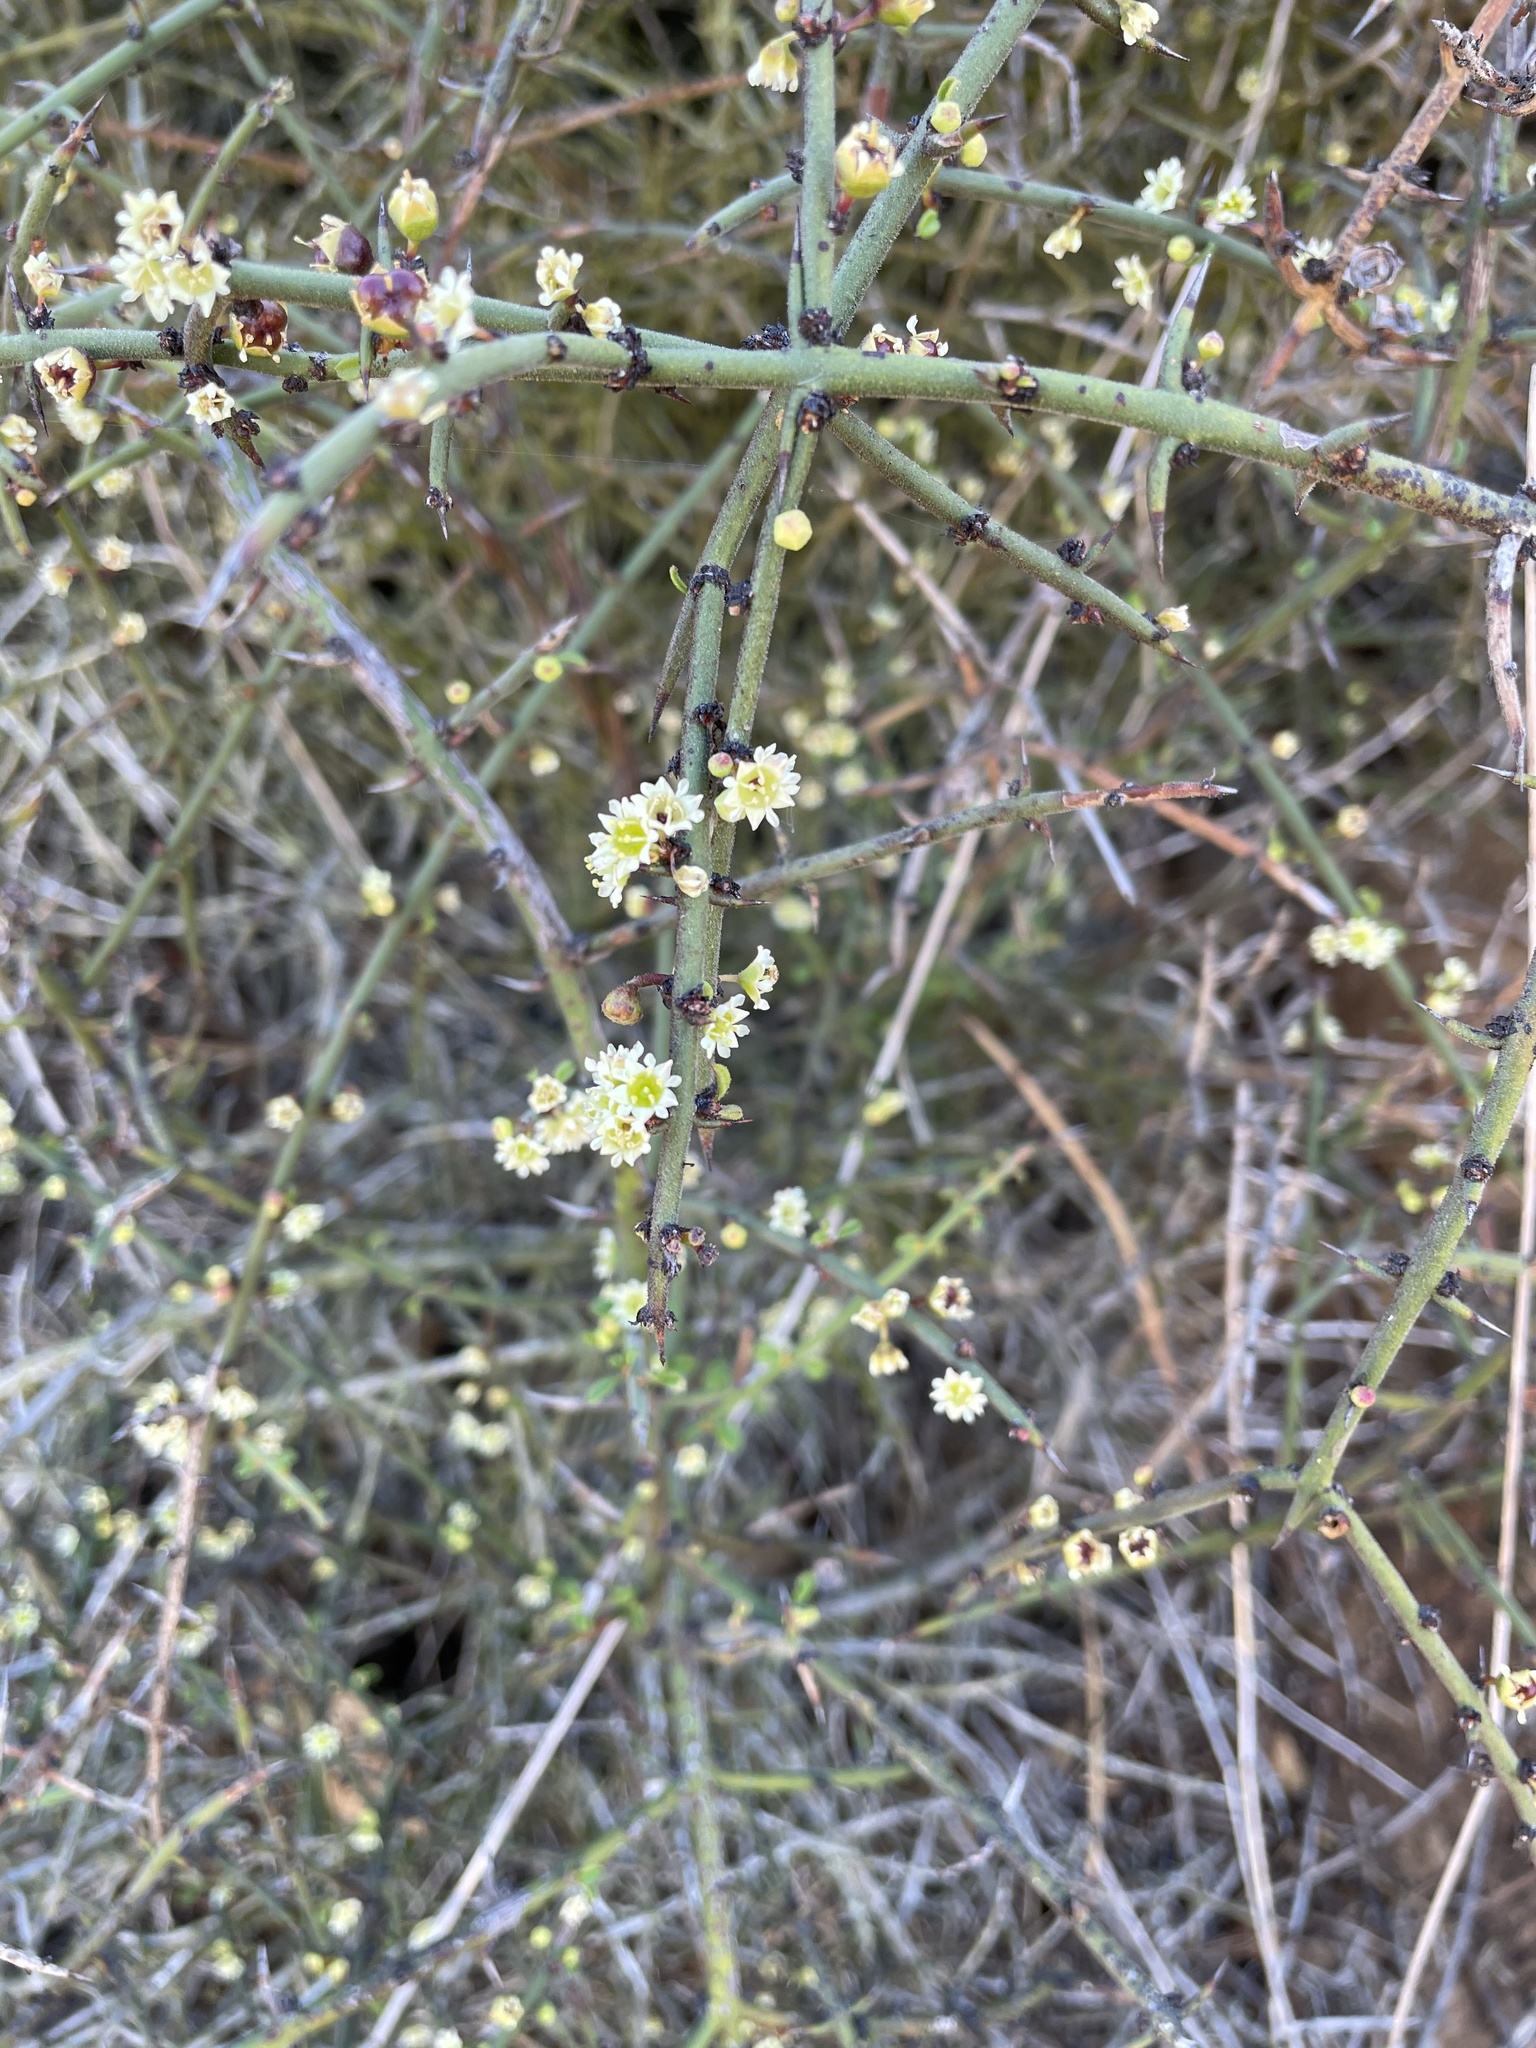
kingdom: Plantae
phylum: Tracheophyta
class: Magnoliopsida
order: Rosales
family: Rhamnaceae
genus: Adolphia
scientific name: Adolphia californica
